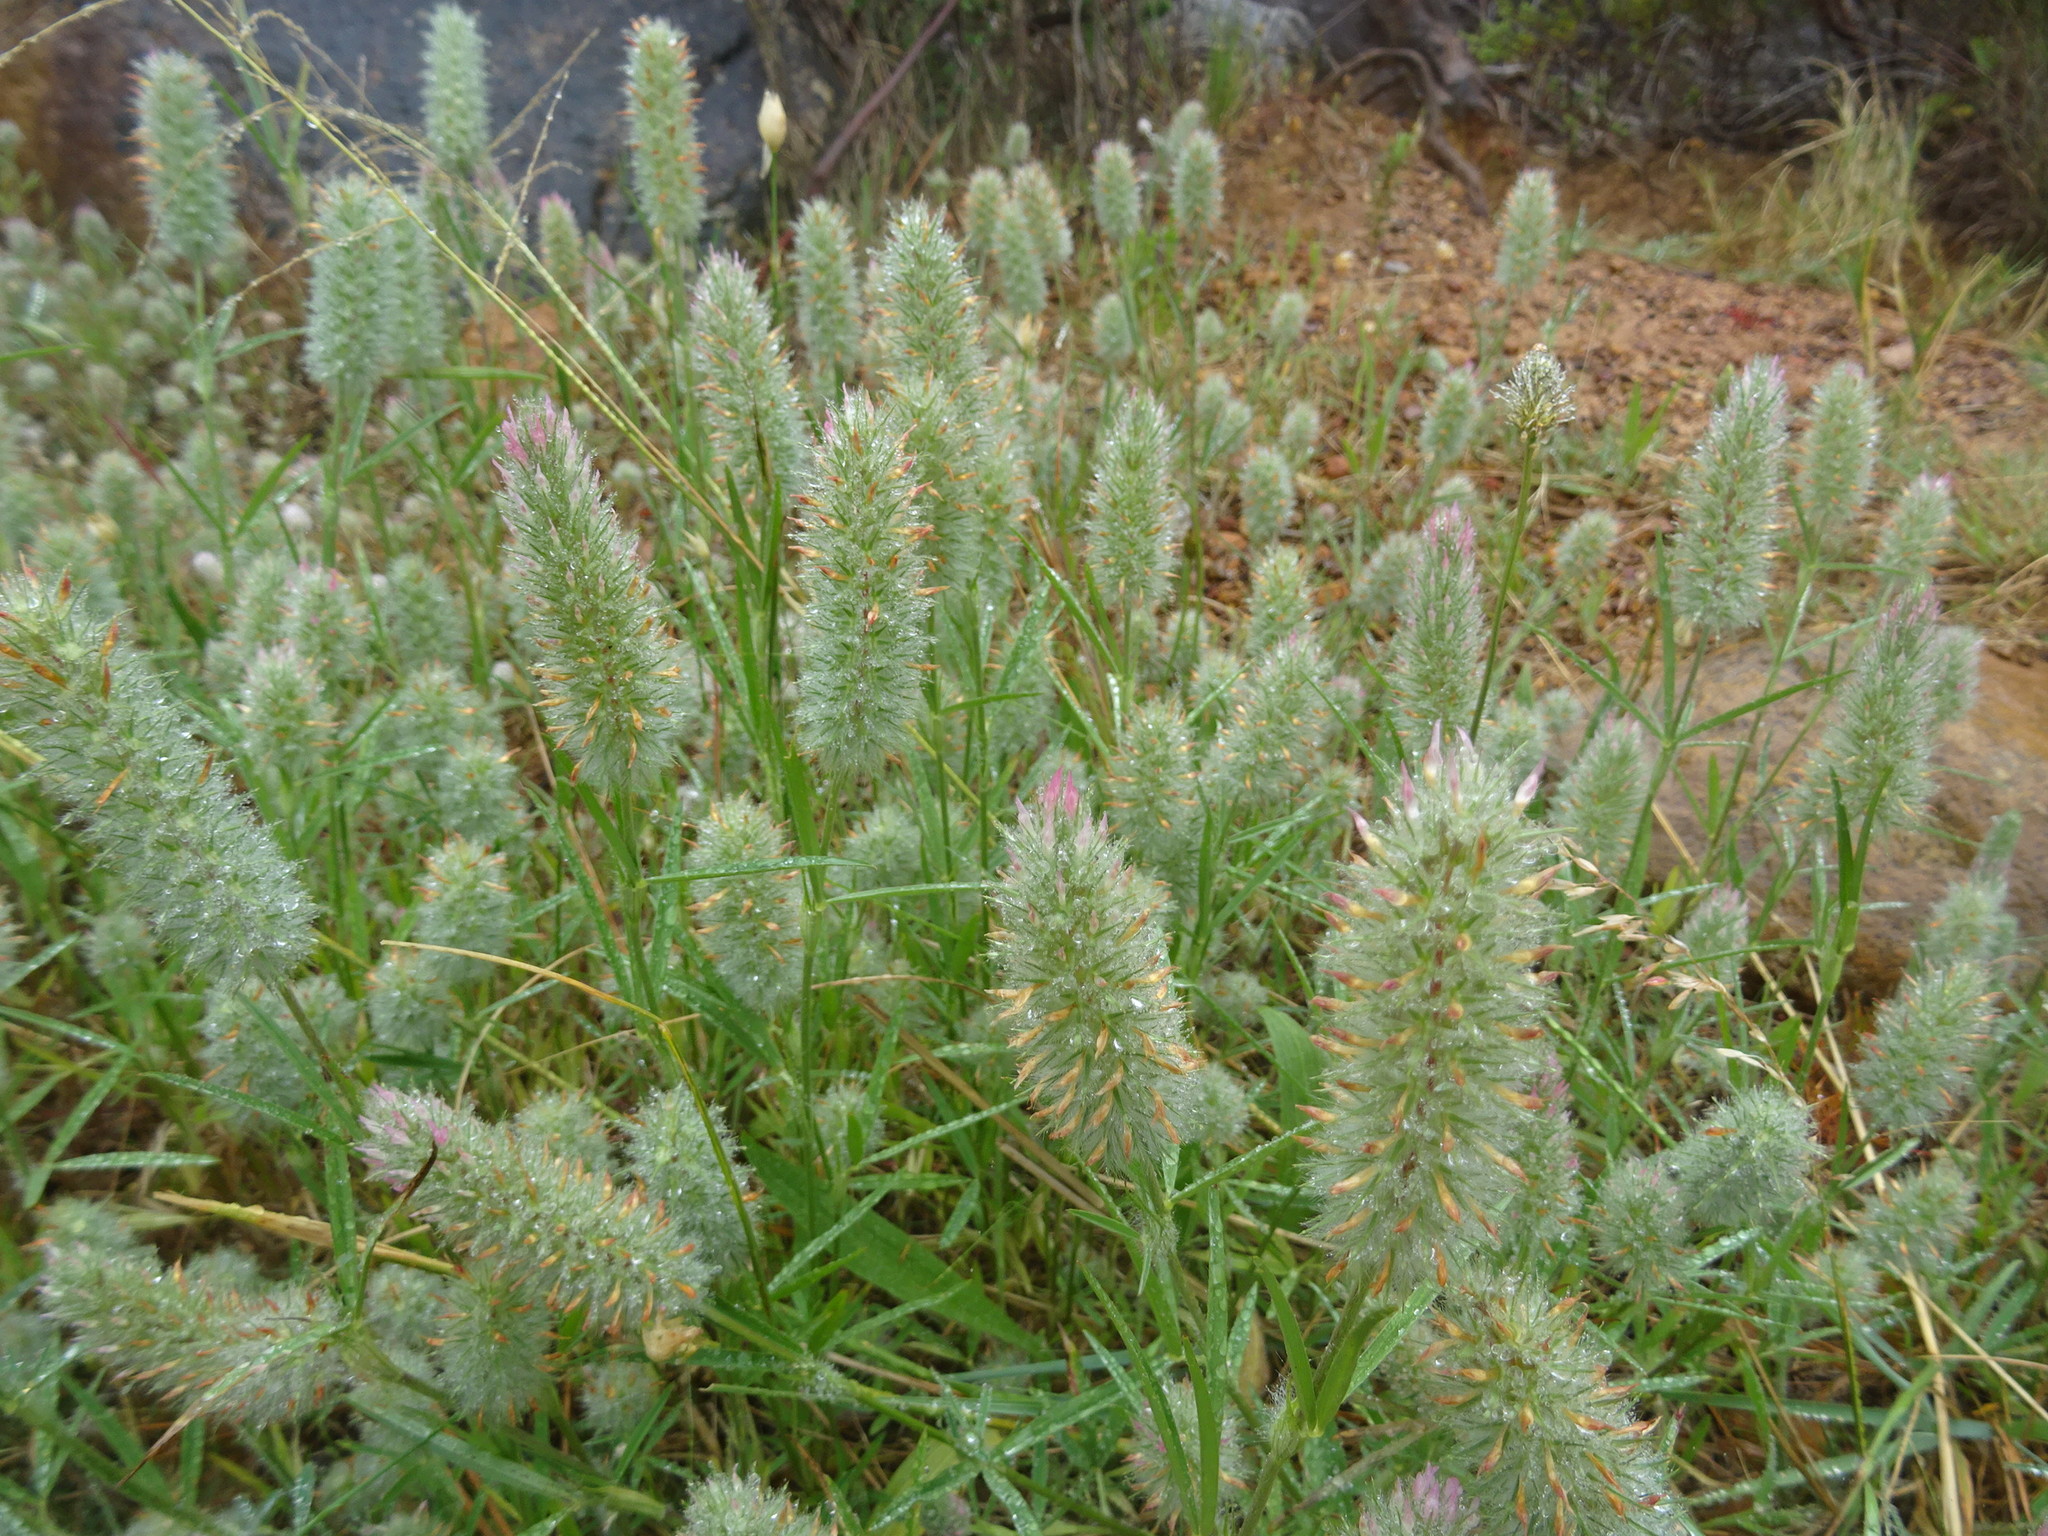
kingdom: Plantae
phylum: Tracheophyta
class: Magnoliopsida
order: Fabales
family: Fabaceae
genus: Trifolium
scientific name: Trifolium angustifolium
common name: Narrow clover
